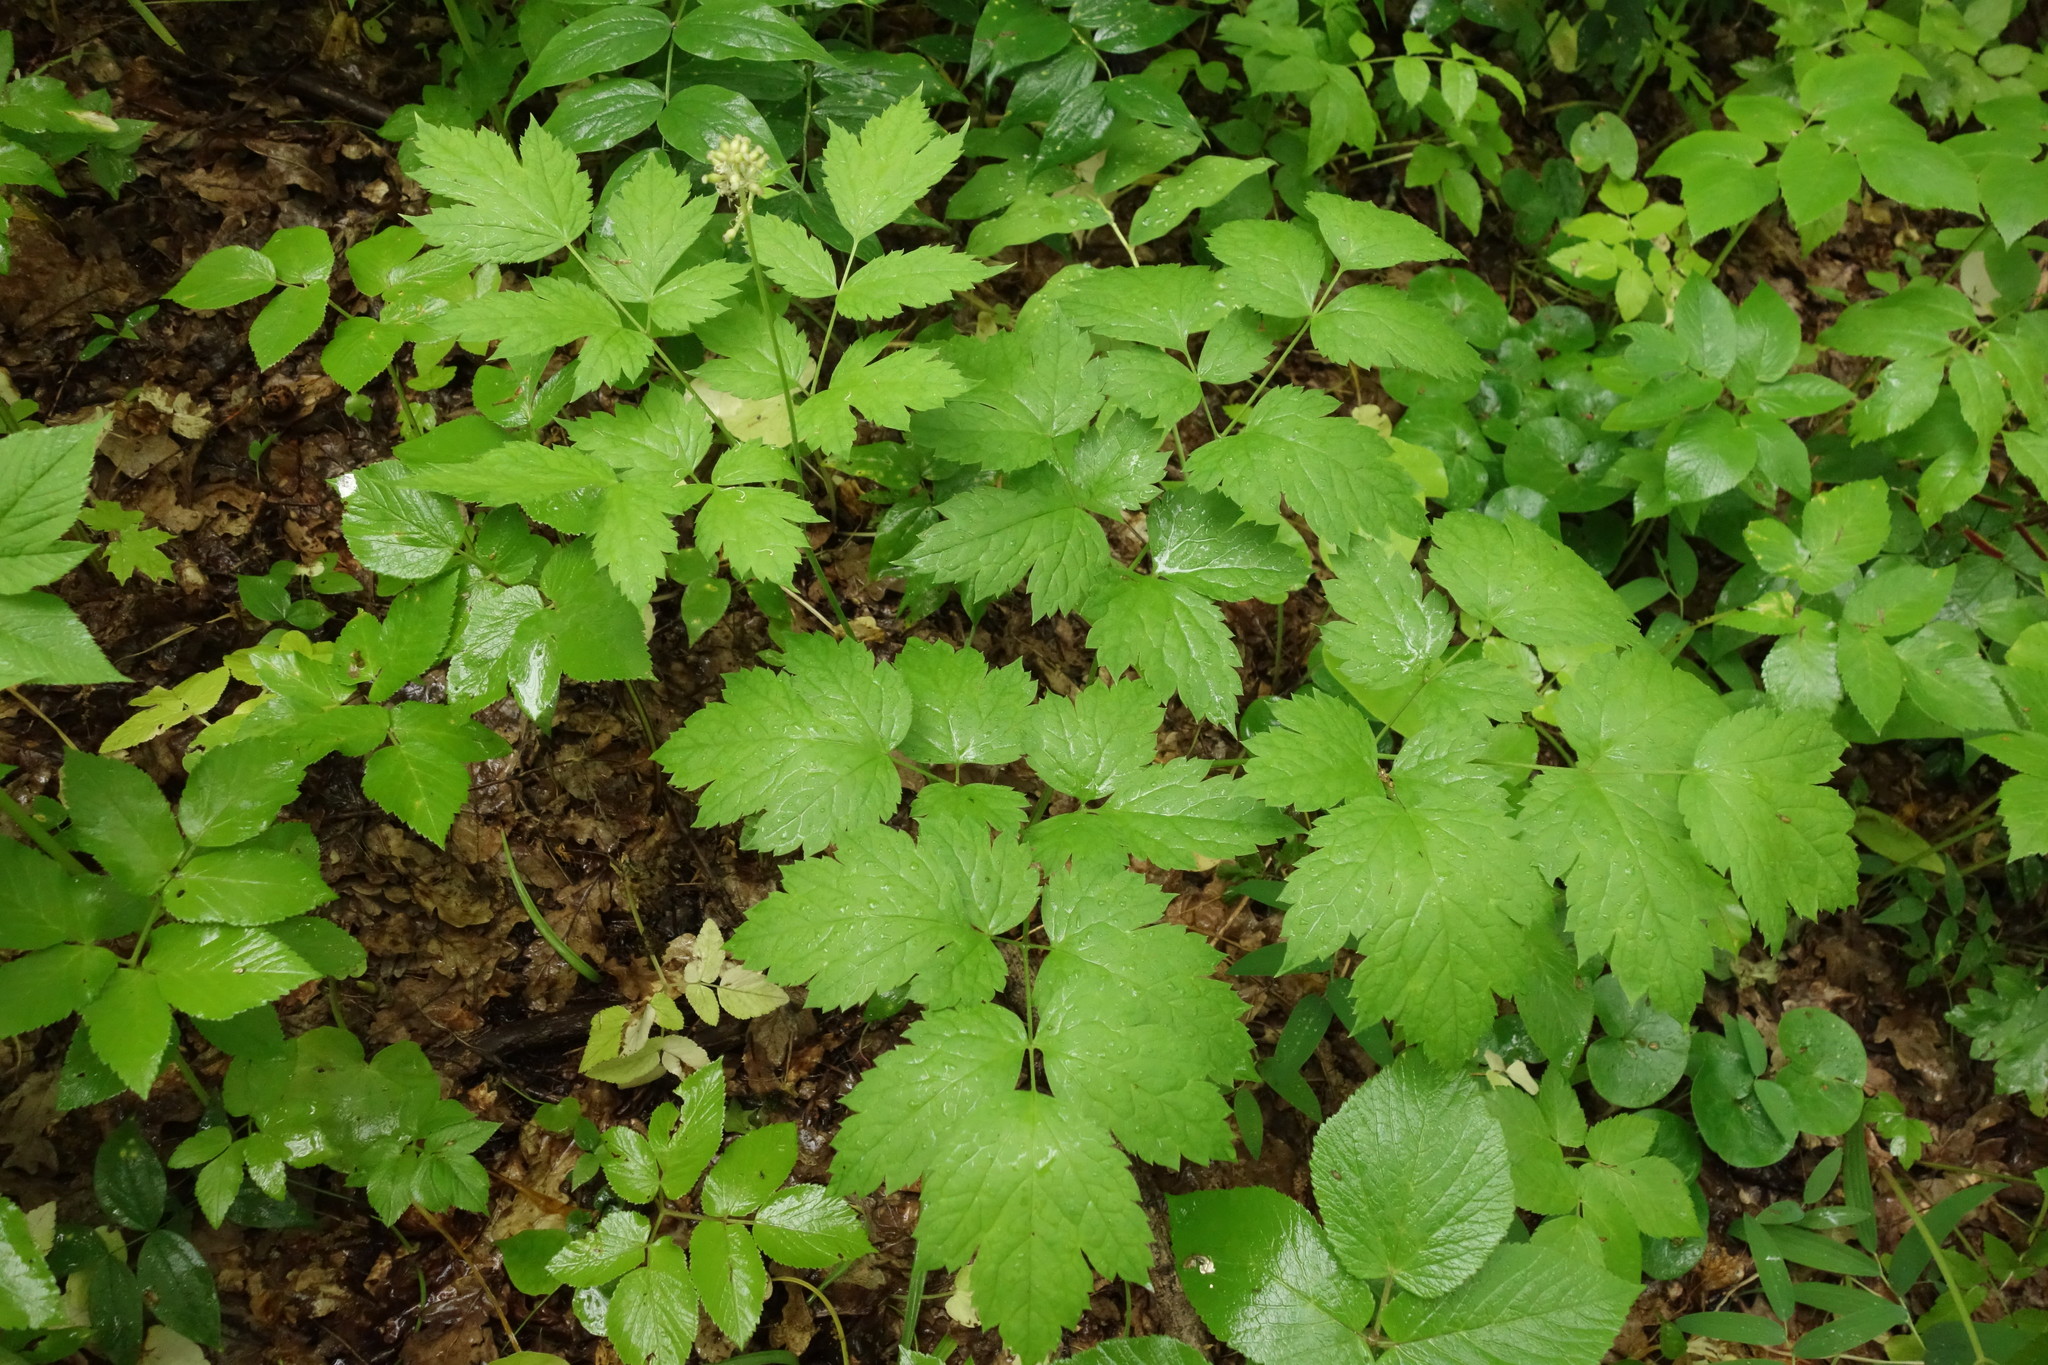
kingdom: Plantae
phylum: Tracheophyta
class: Magnoliopsida
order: Ranunculales
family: Ranunculaceae
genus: Actaea
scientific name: Actaea spicata
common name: Baneberry
